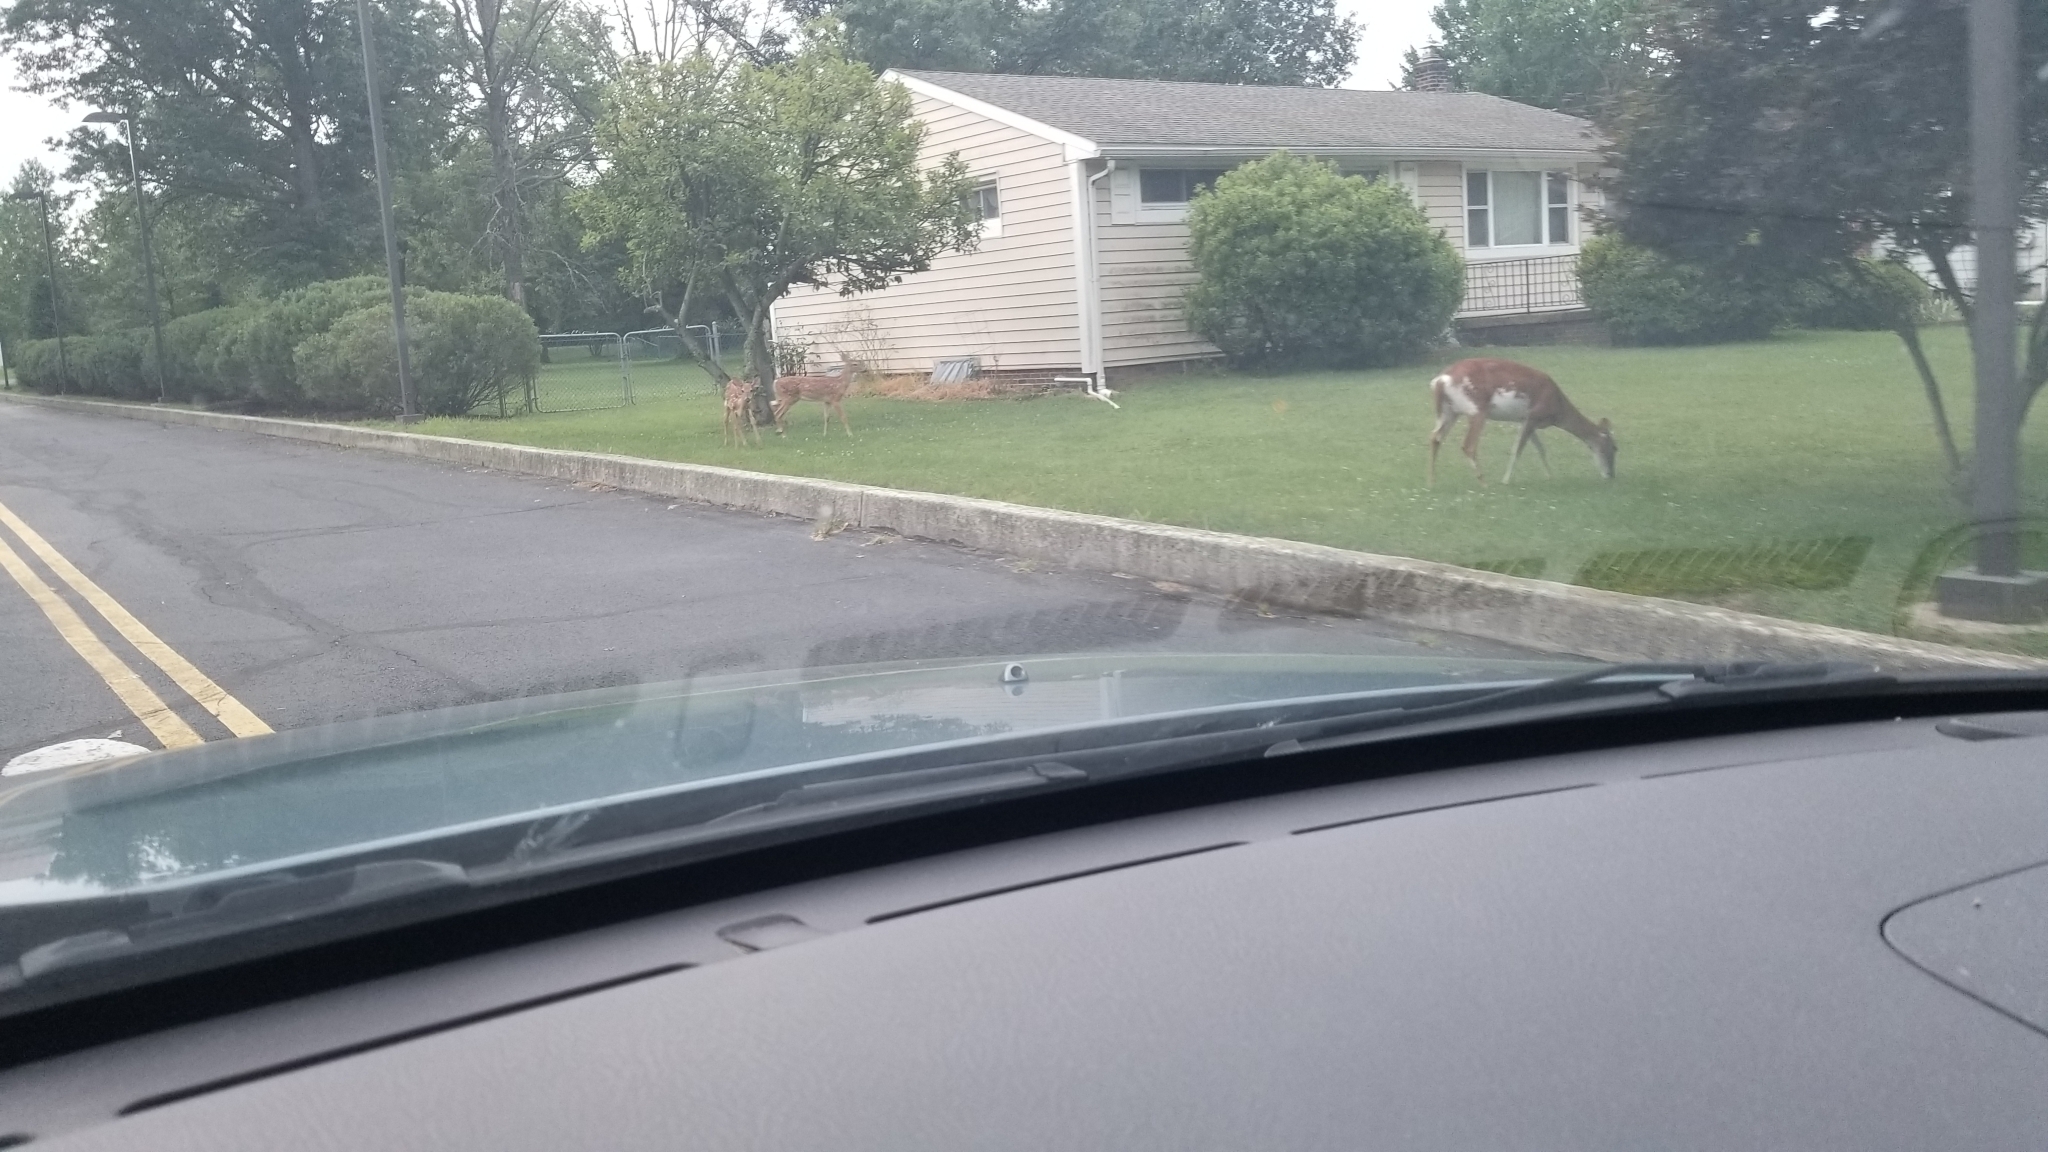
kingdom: Animalia
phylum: Chordata
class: Mammalia
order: Artiodactyla
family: Cervidae
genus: Odocoileus
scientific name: Odocoileus virginianus
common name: White-tailed deer
